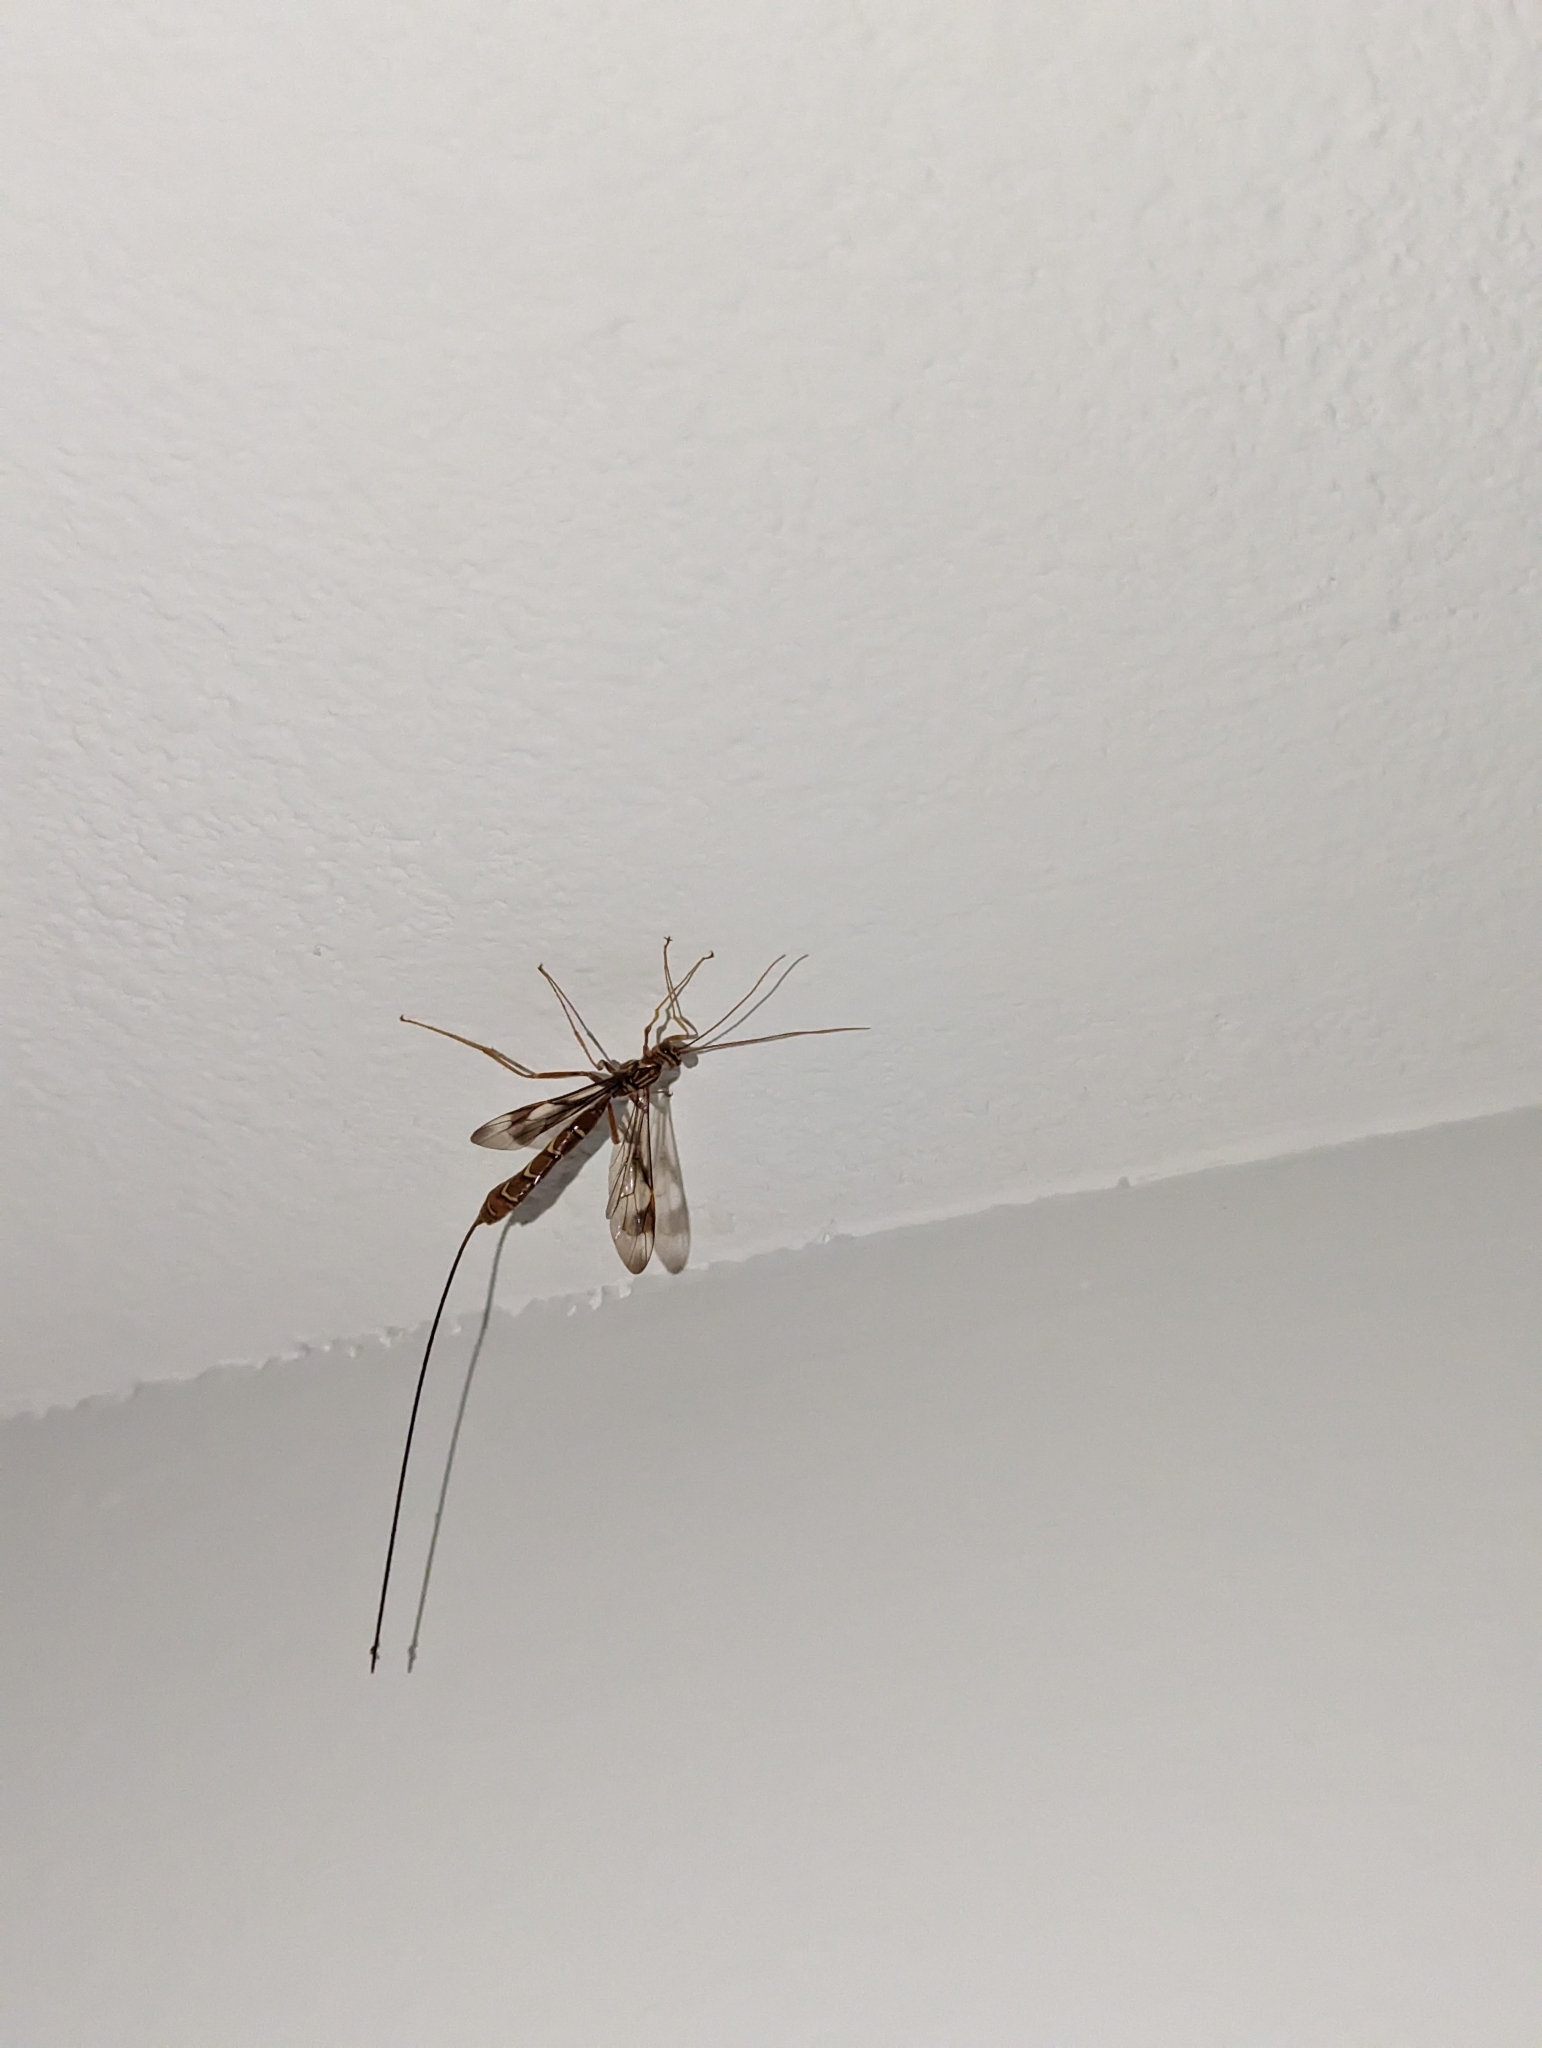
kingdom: Animalia
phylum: Arthropoda
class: Insecta
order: Hymenoptera
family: Ichneumonidae
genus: Megarhyssa
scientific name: Megarhyssa macrura
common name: Long-tailed giant ichneumonid wasp
